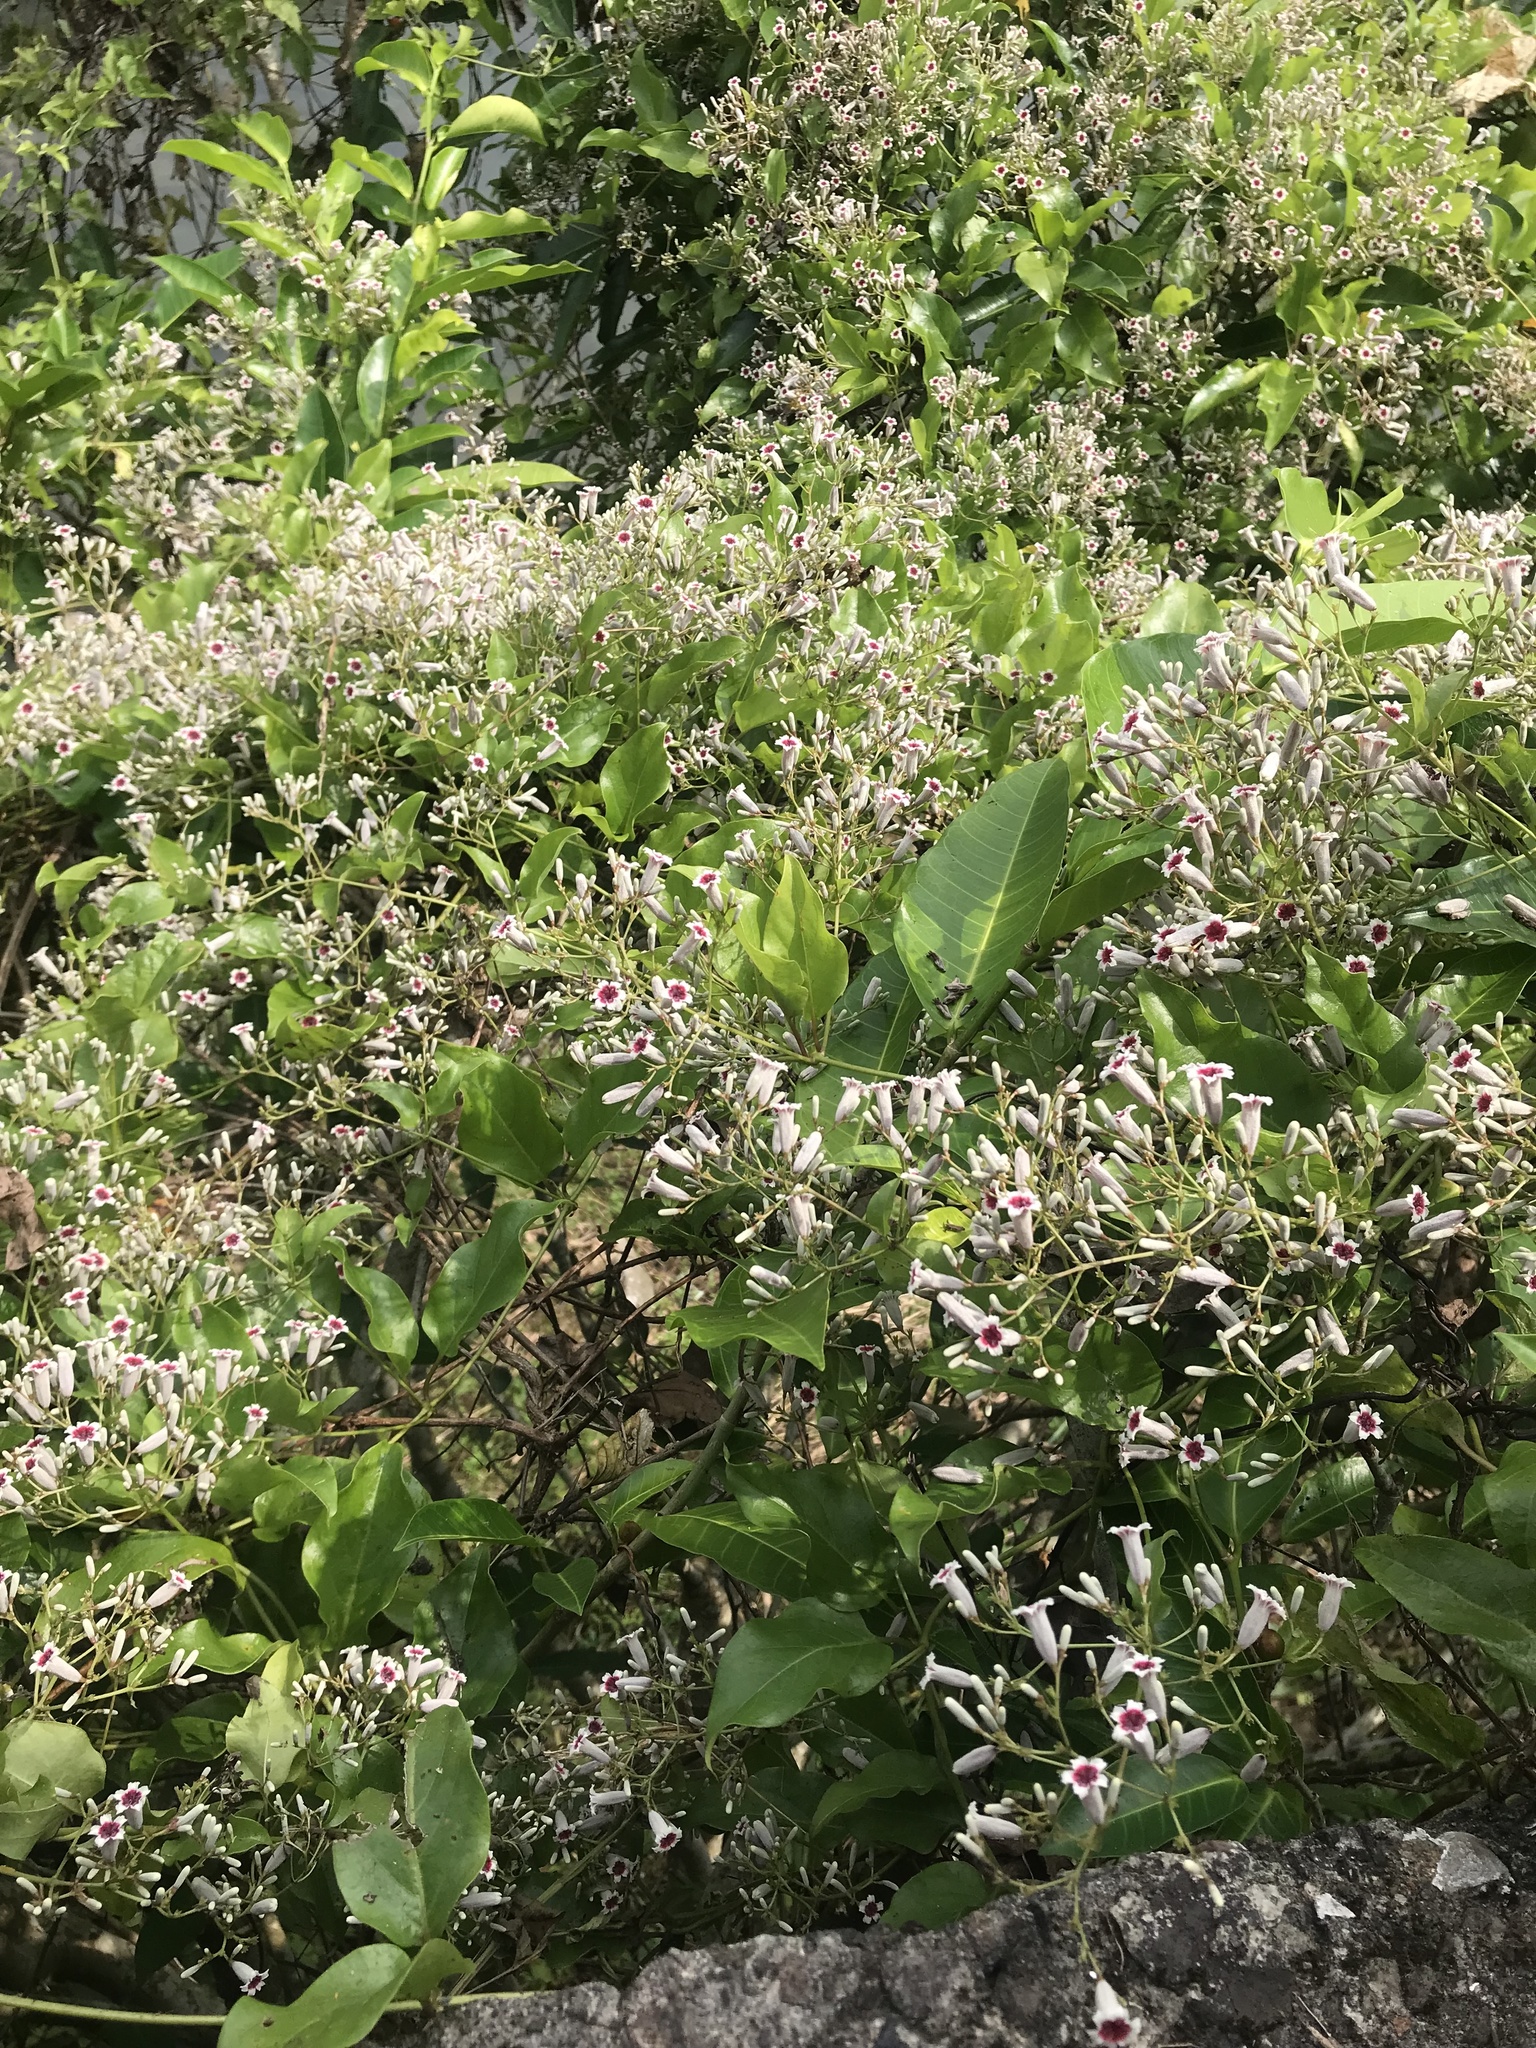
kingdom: Plantae
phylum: Tracheophyta
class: Magnoliopsida
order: Gentianales
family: Rubiaceae
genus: Paederia
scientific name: Paederia foetida
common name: Stinkvine
